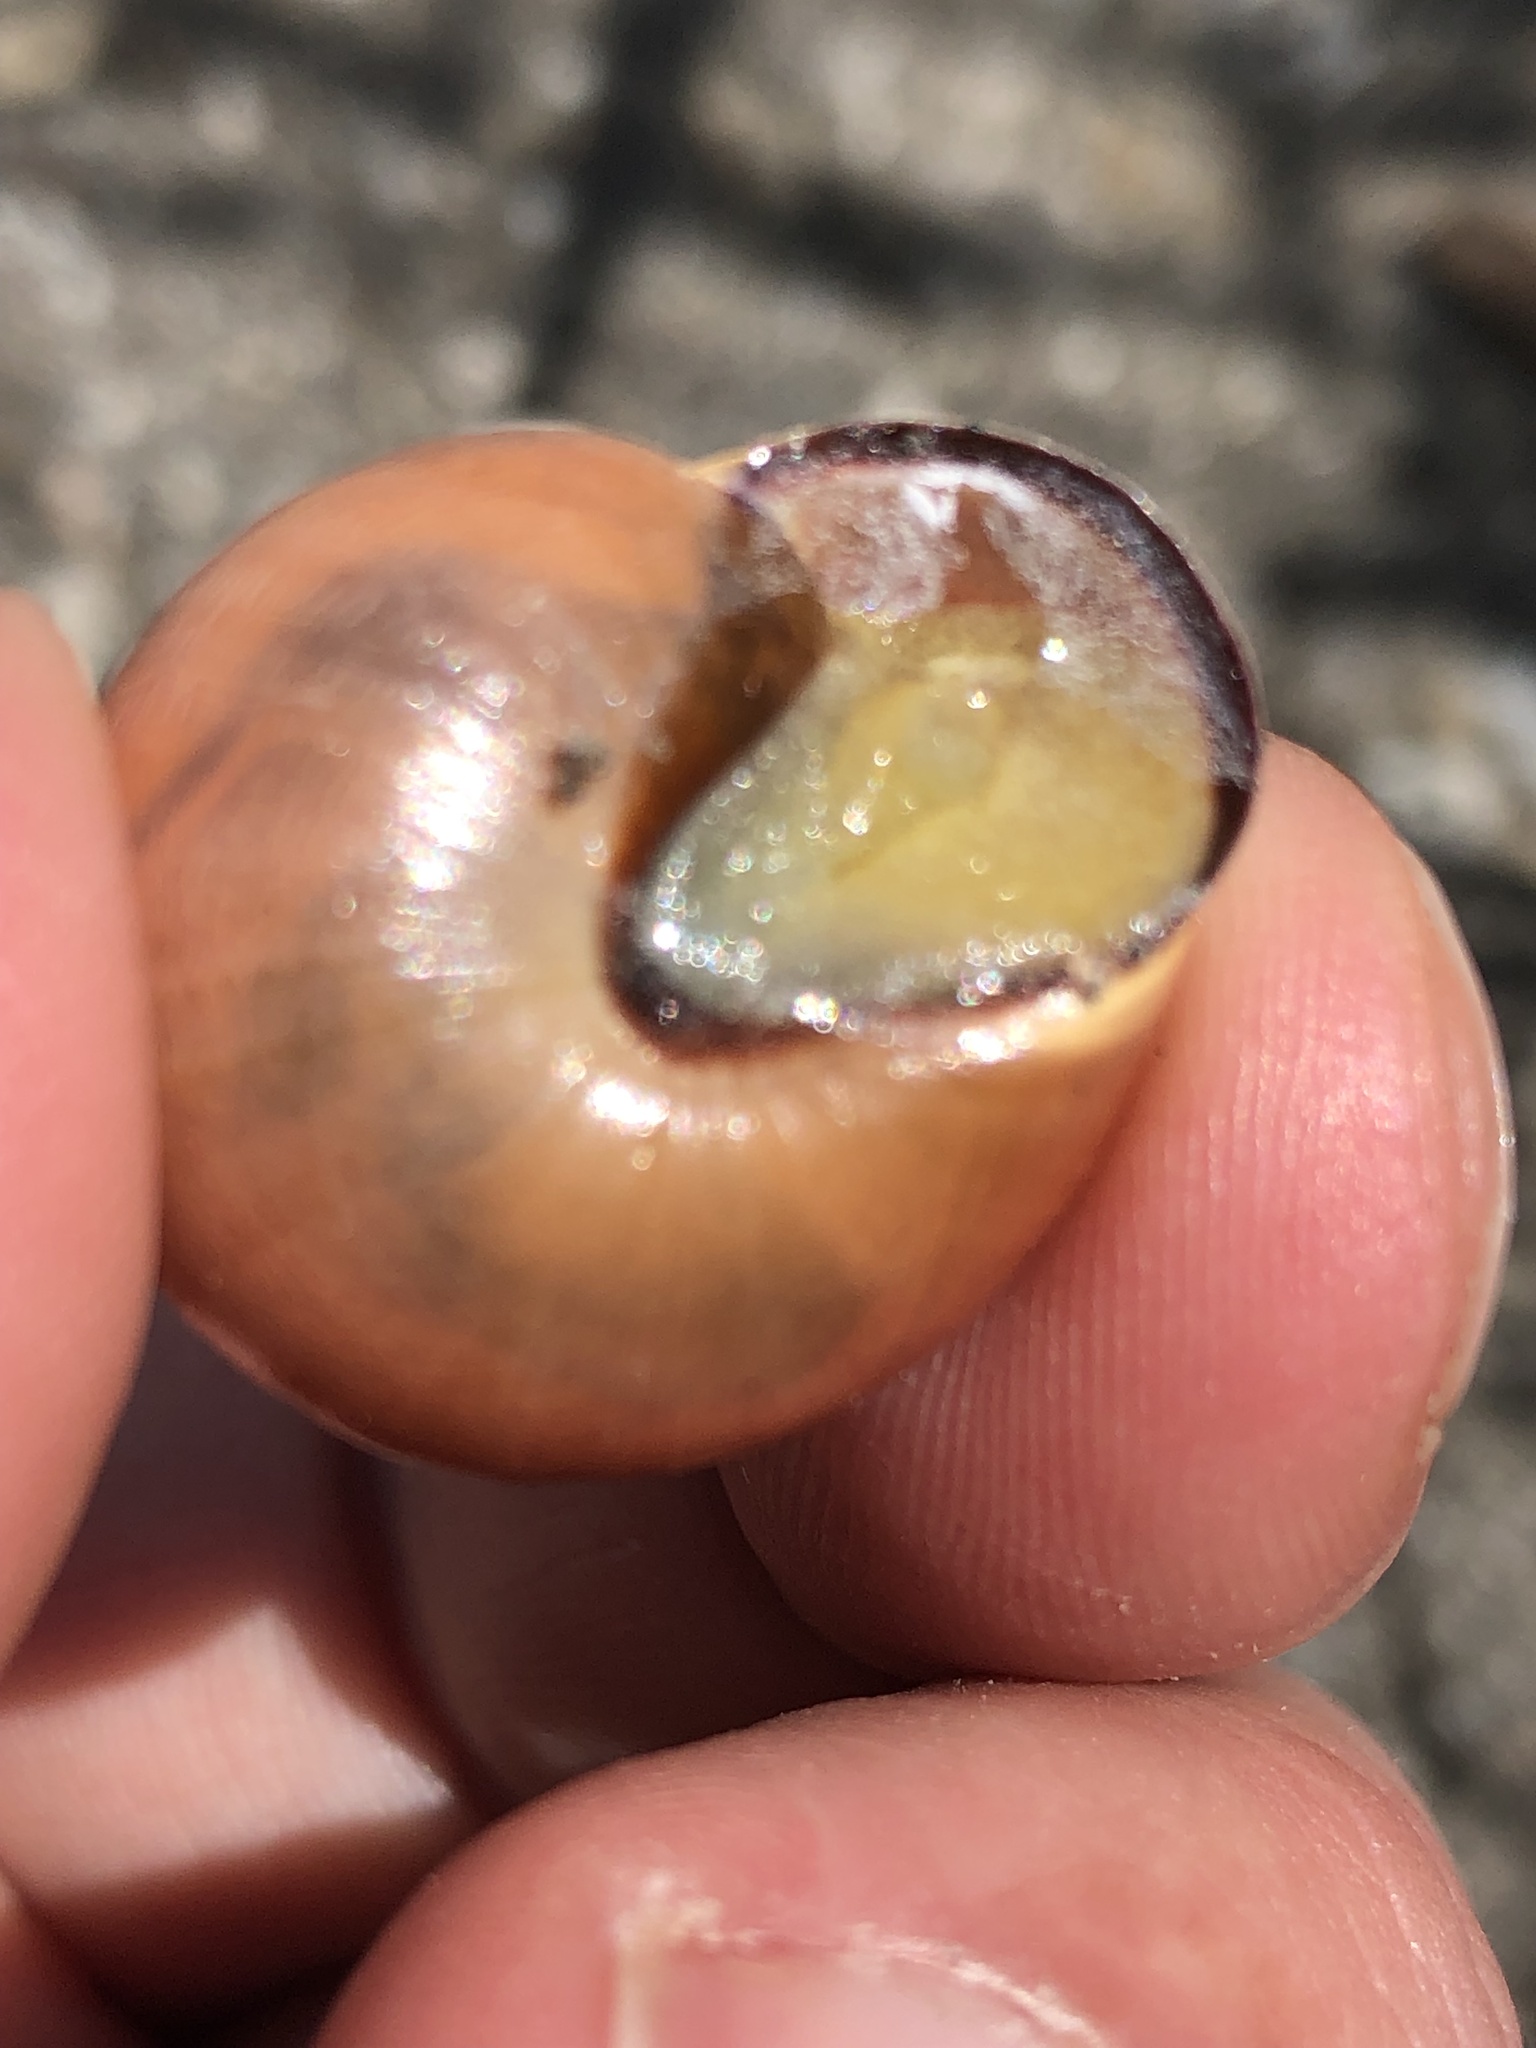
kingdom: Animalia
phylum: Mollusca
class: Gastropoda
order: Stylommatophora
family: Helicidae
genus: Cepaea
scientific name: Cepaea nemoralis
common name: Grovesnail
